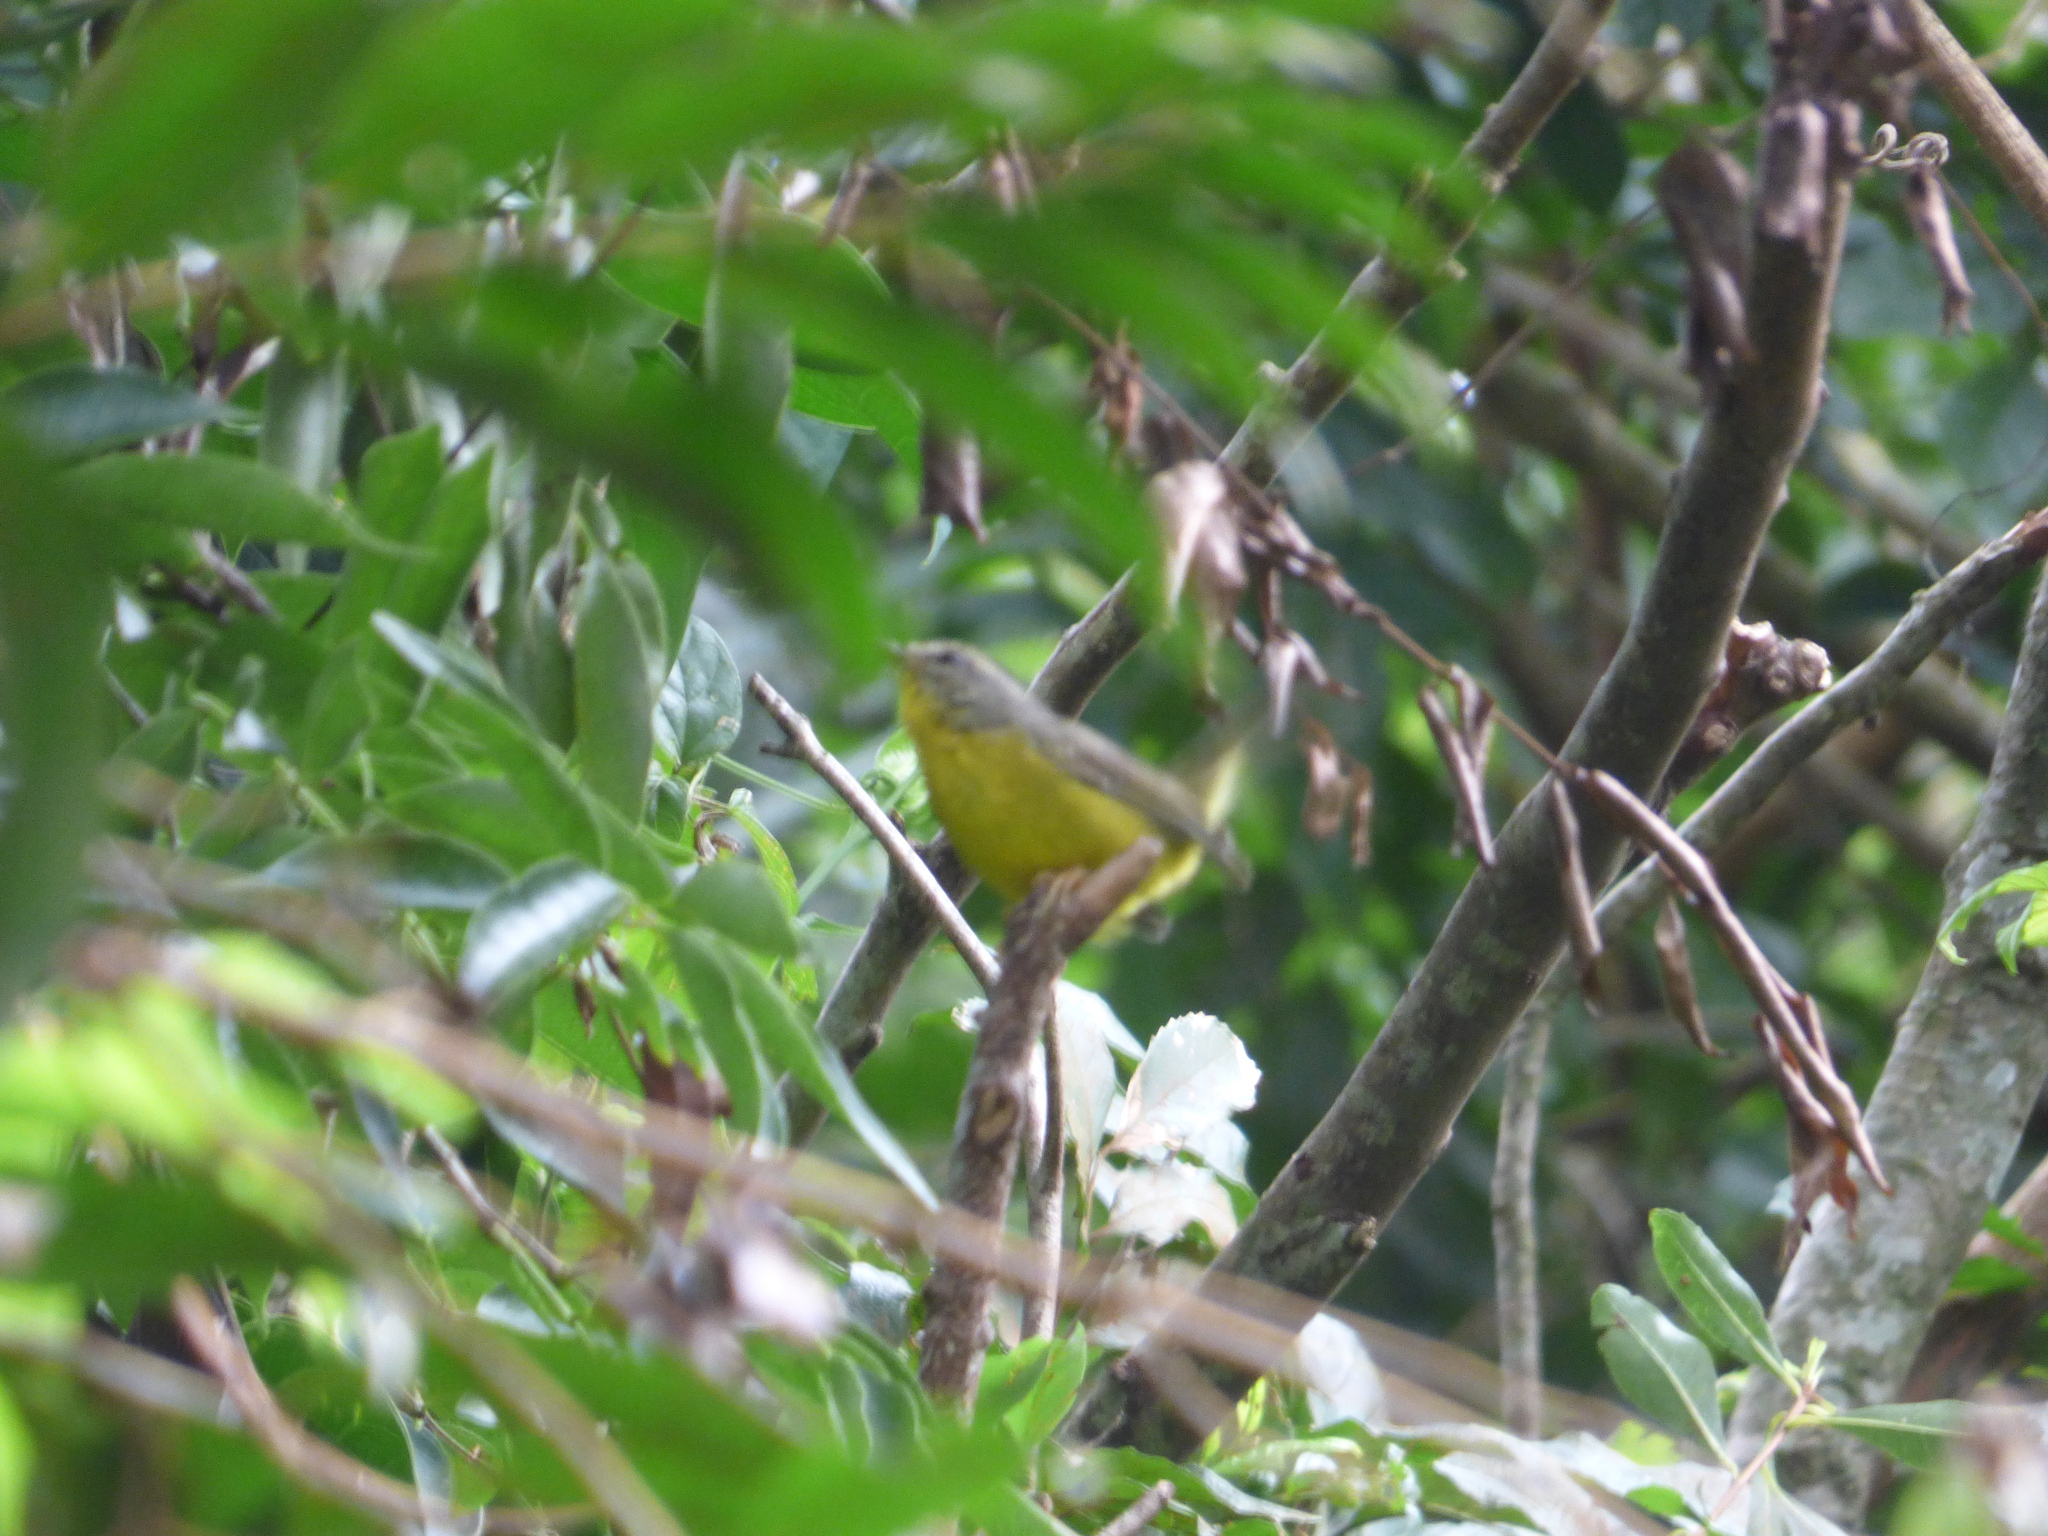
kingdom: Animalia
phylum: Chordata
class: Aves
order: Passeriformes
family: Parulidae
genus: Basileuterus
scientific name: Basileuterus culicivorus
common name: Golden-crowned warbler
